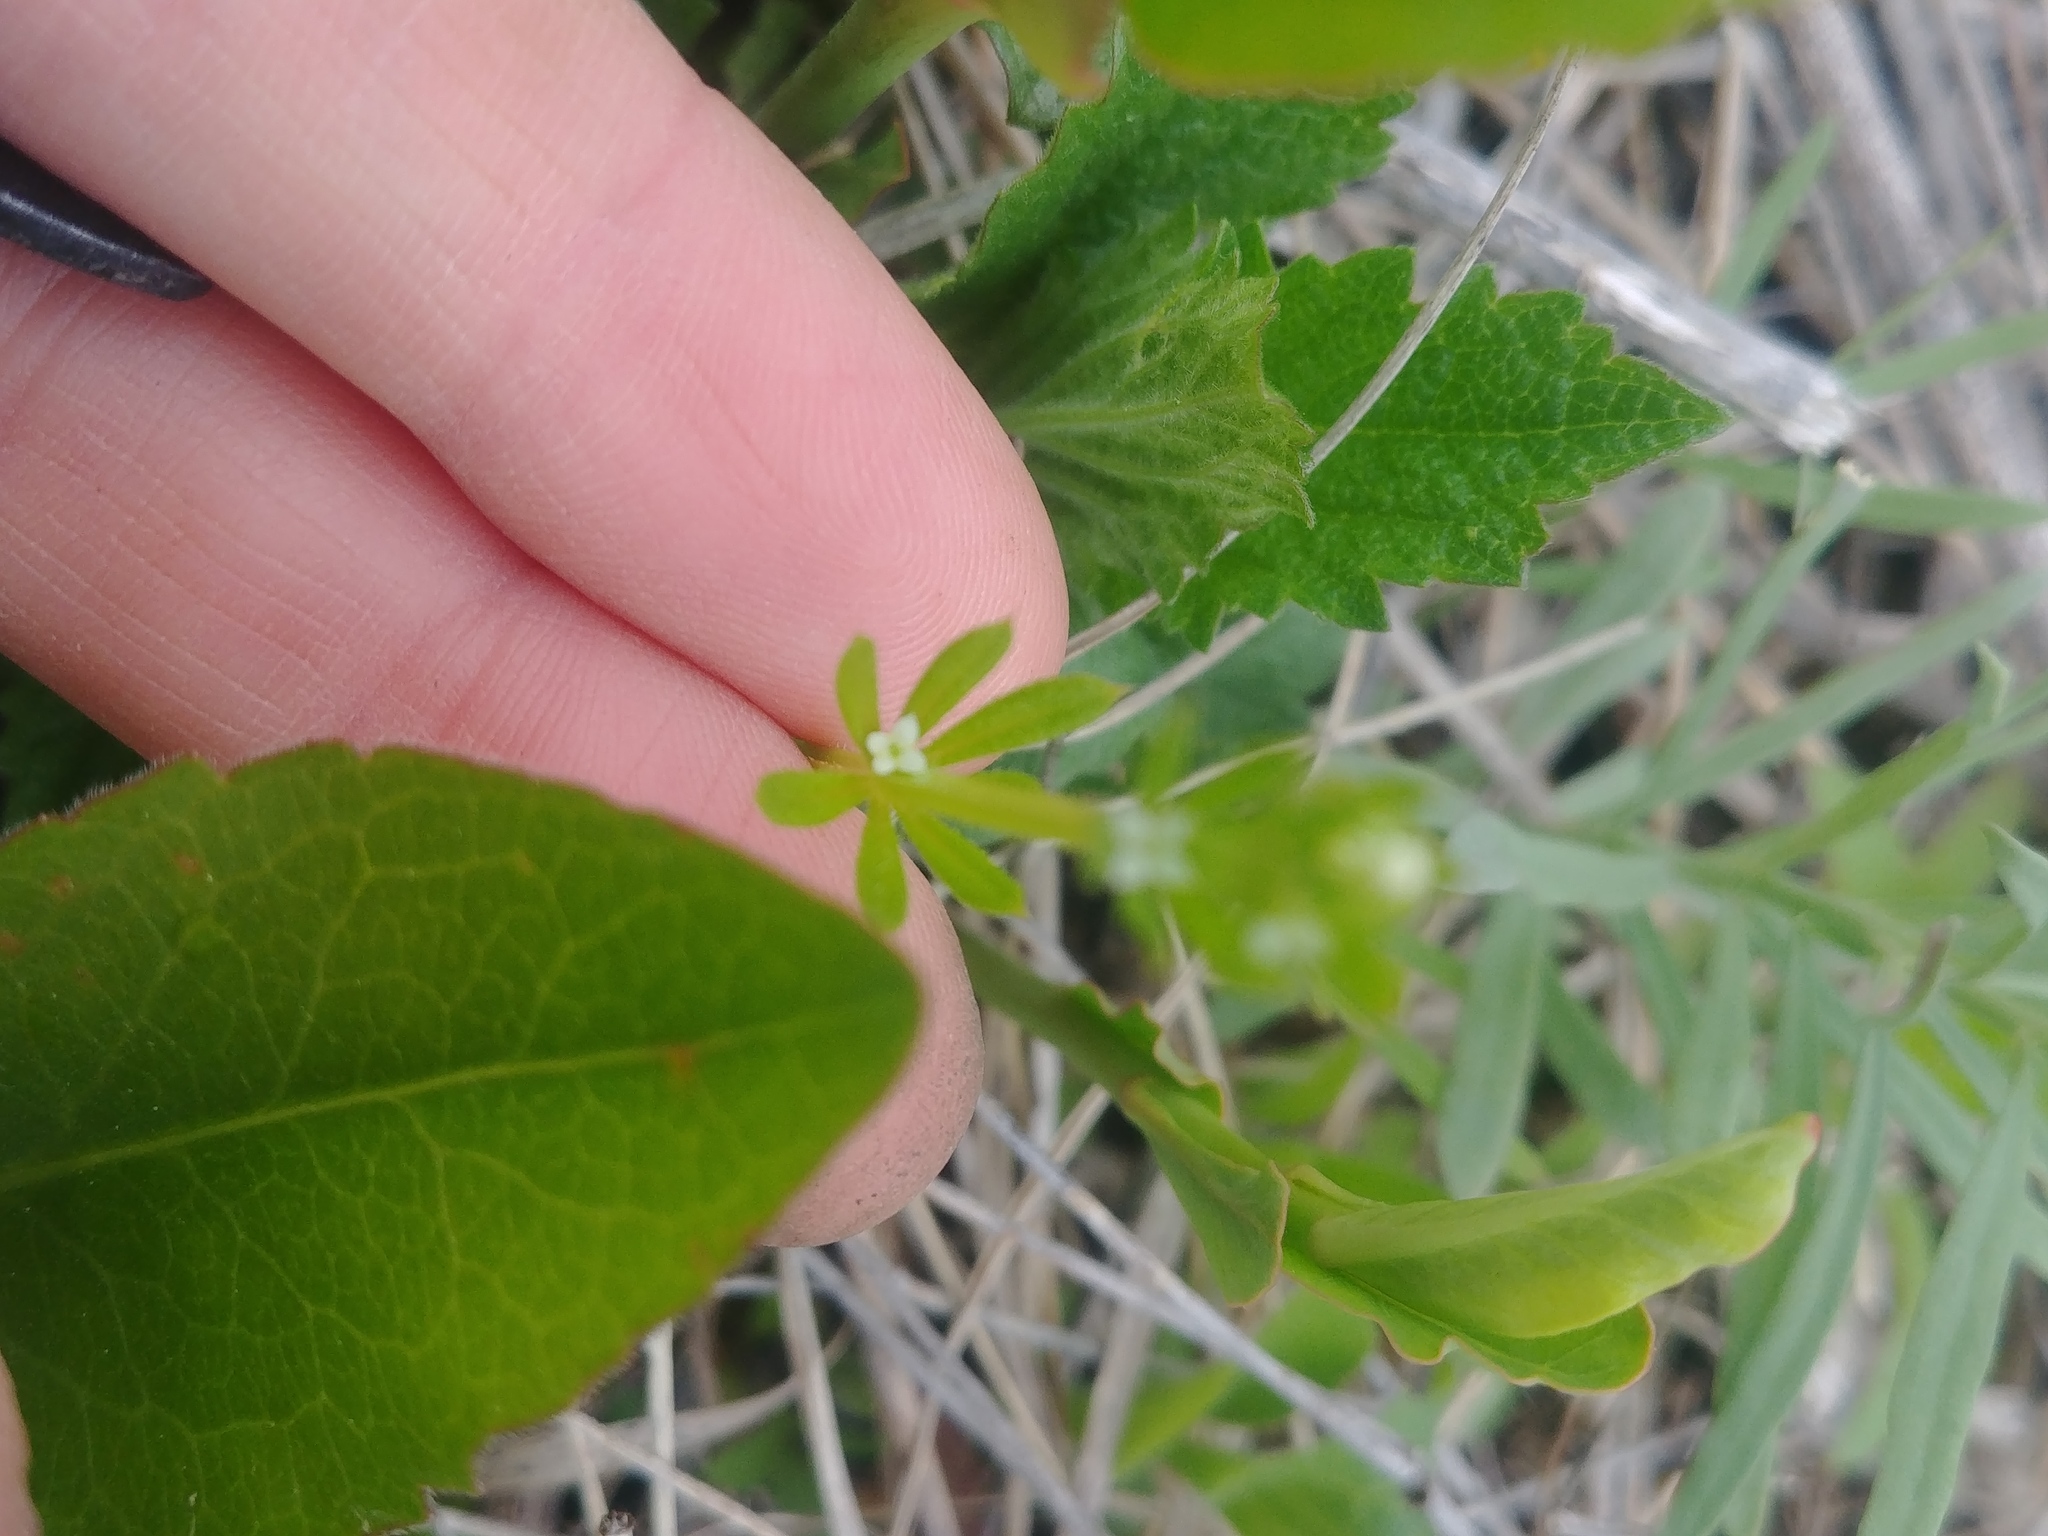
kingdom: Plantae
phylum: Tracheophyta
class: Magnoliopsida
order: Gentianales
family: Rubiaceae
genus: Galium
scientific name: Galium aparine
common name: Cleavers
